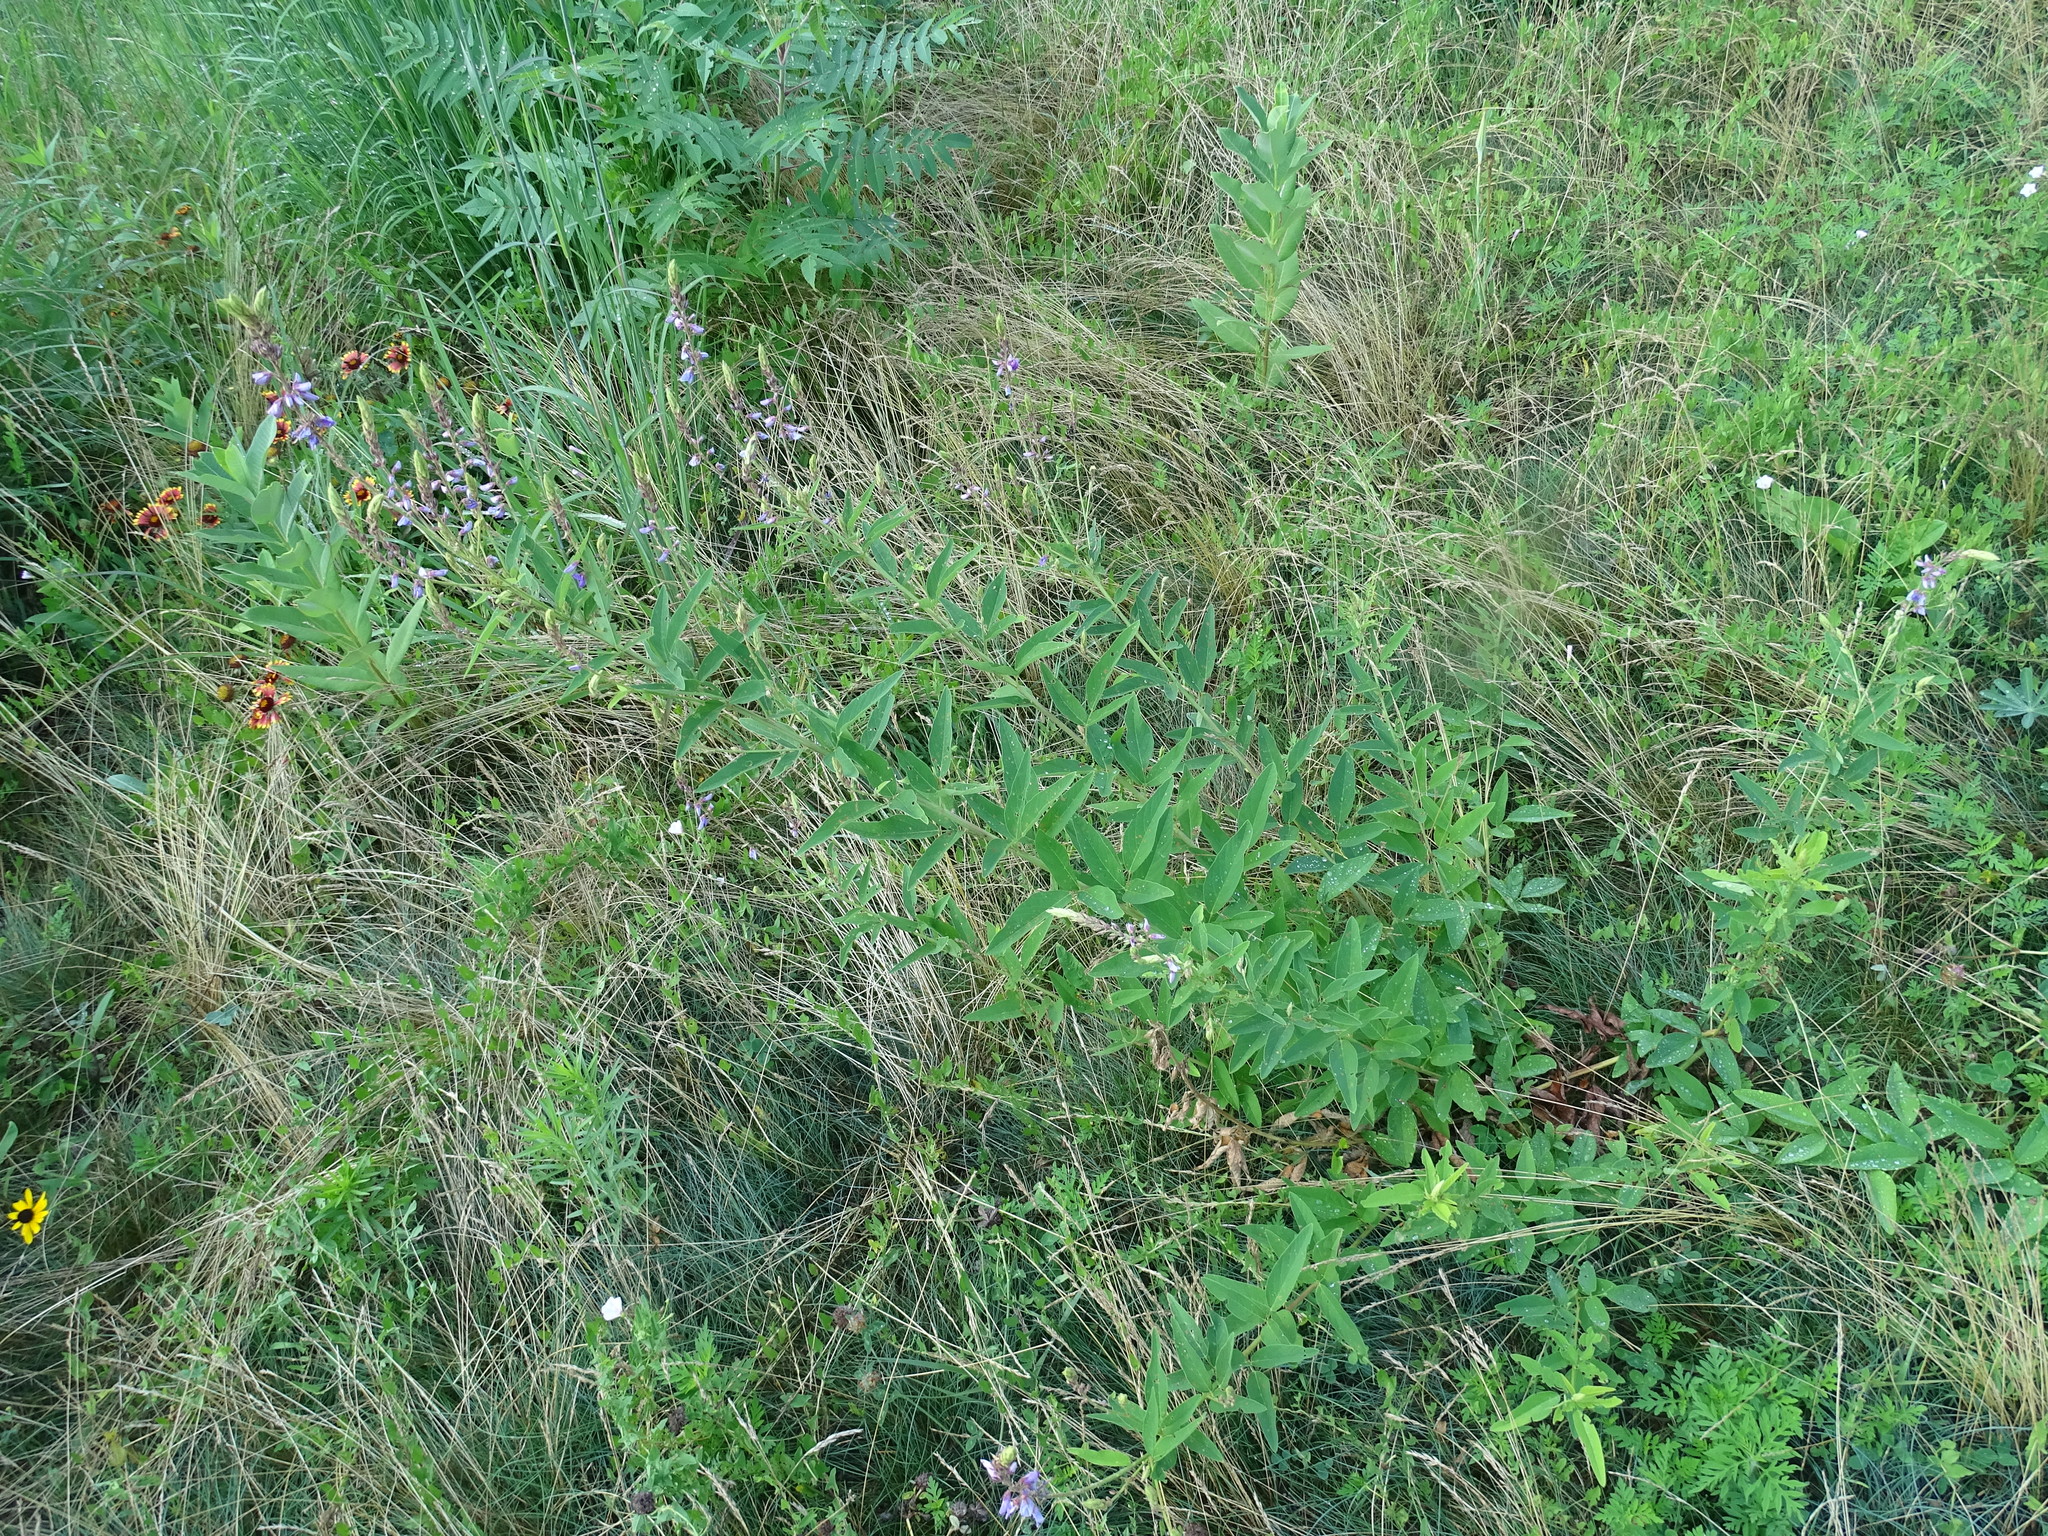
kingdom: Plantae
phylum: Tracheophyta
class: Magnoliopsida
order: Fabales
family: Fabaceae
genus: Desmodium
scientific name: Desmodium canadense
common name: Canada tick-trefoil
